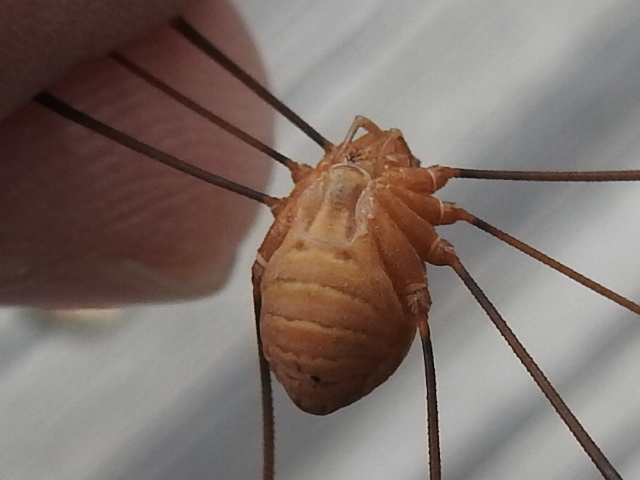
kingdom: Animalia
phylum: Arthropoda
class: Arachnida
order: Opiliones
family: Sclerosomatidae
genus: Leiobunum
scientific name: Leiobunum vittatum
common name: Eastern harvestman
